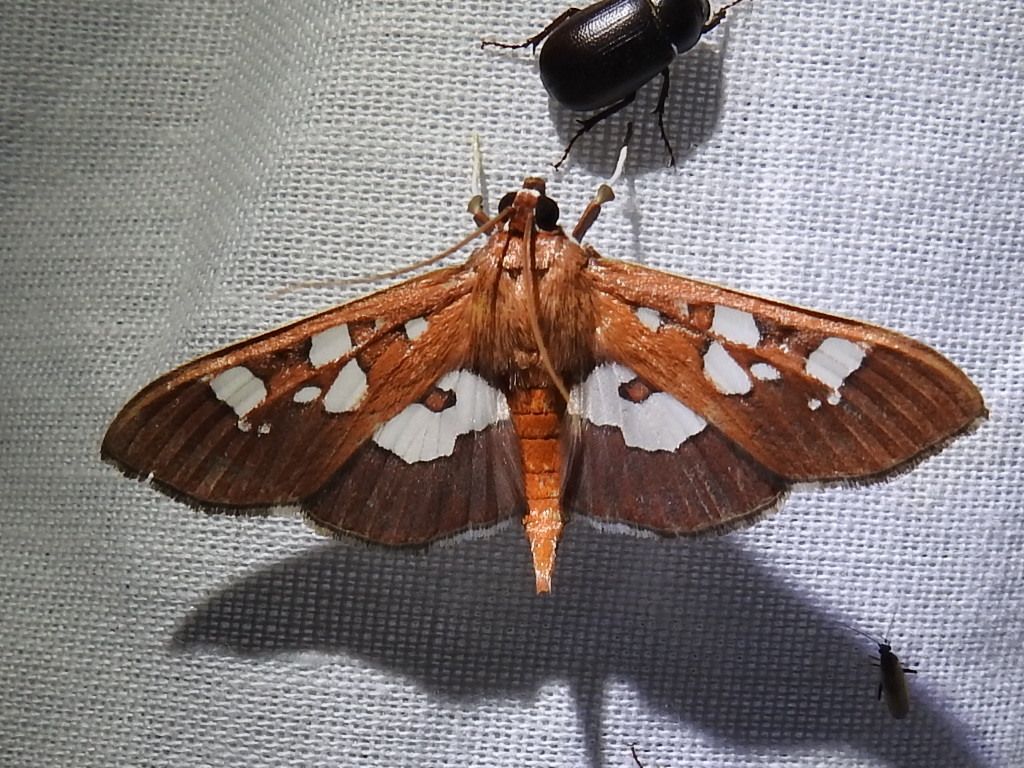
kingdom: Animalia
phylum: Arthropoda
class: Insecta
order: Lepidoptera
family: Crambidae
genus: Phostria
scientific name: Phostria tedea
